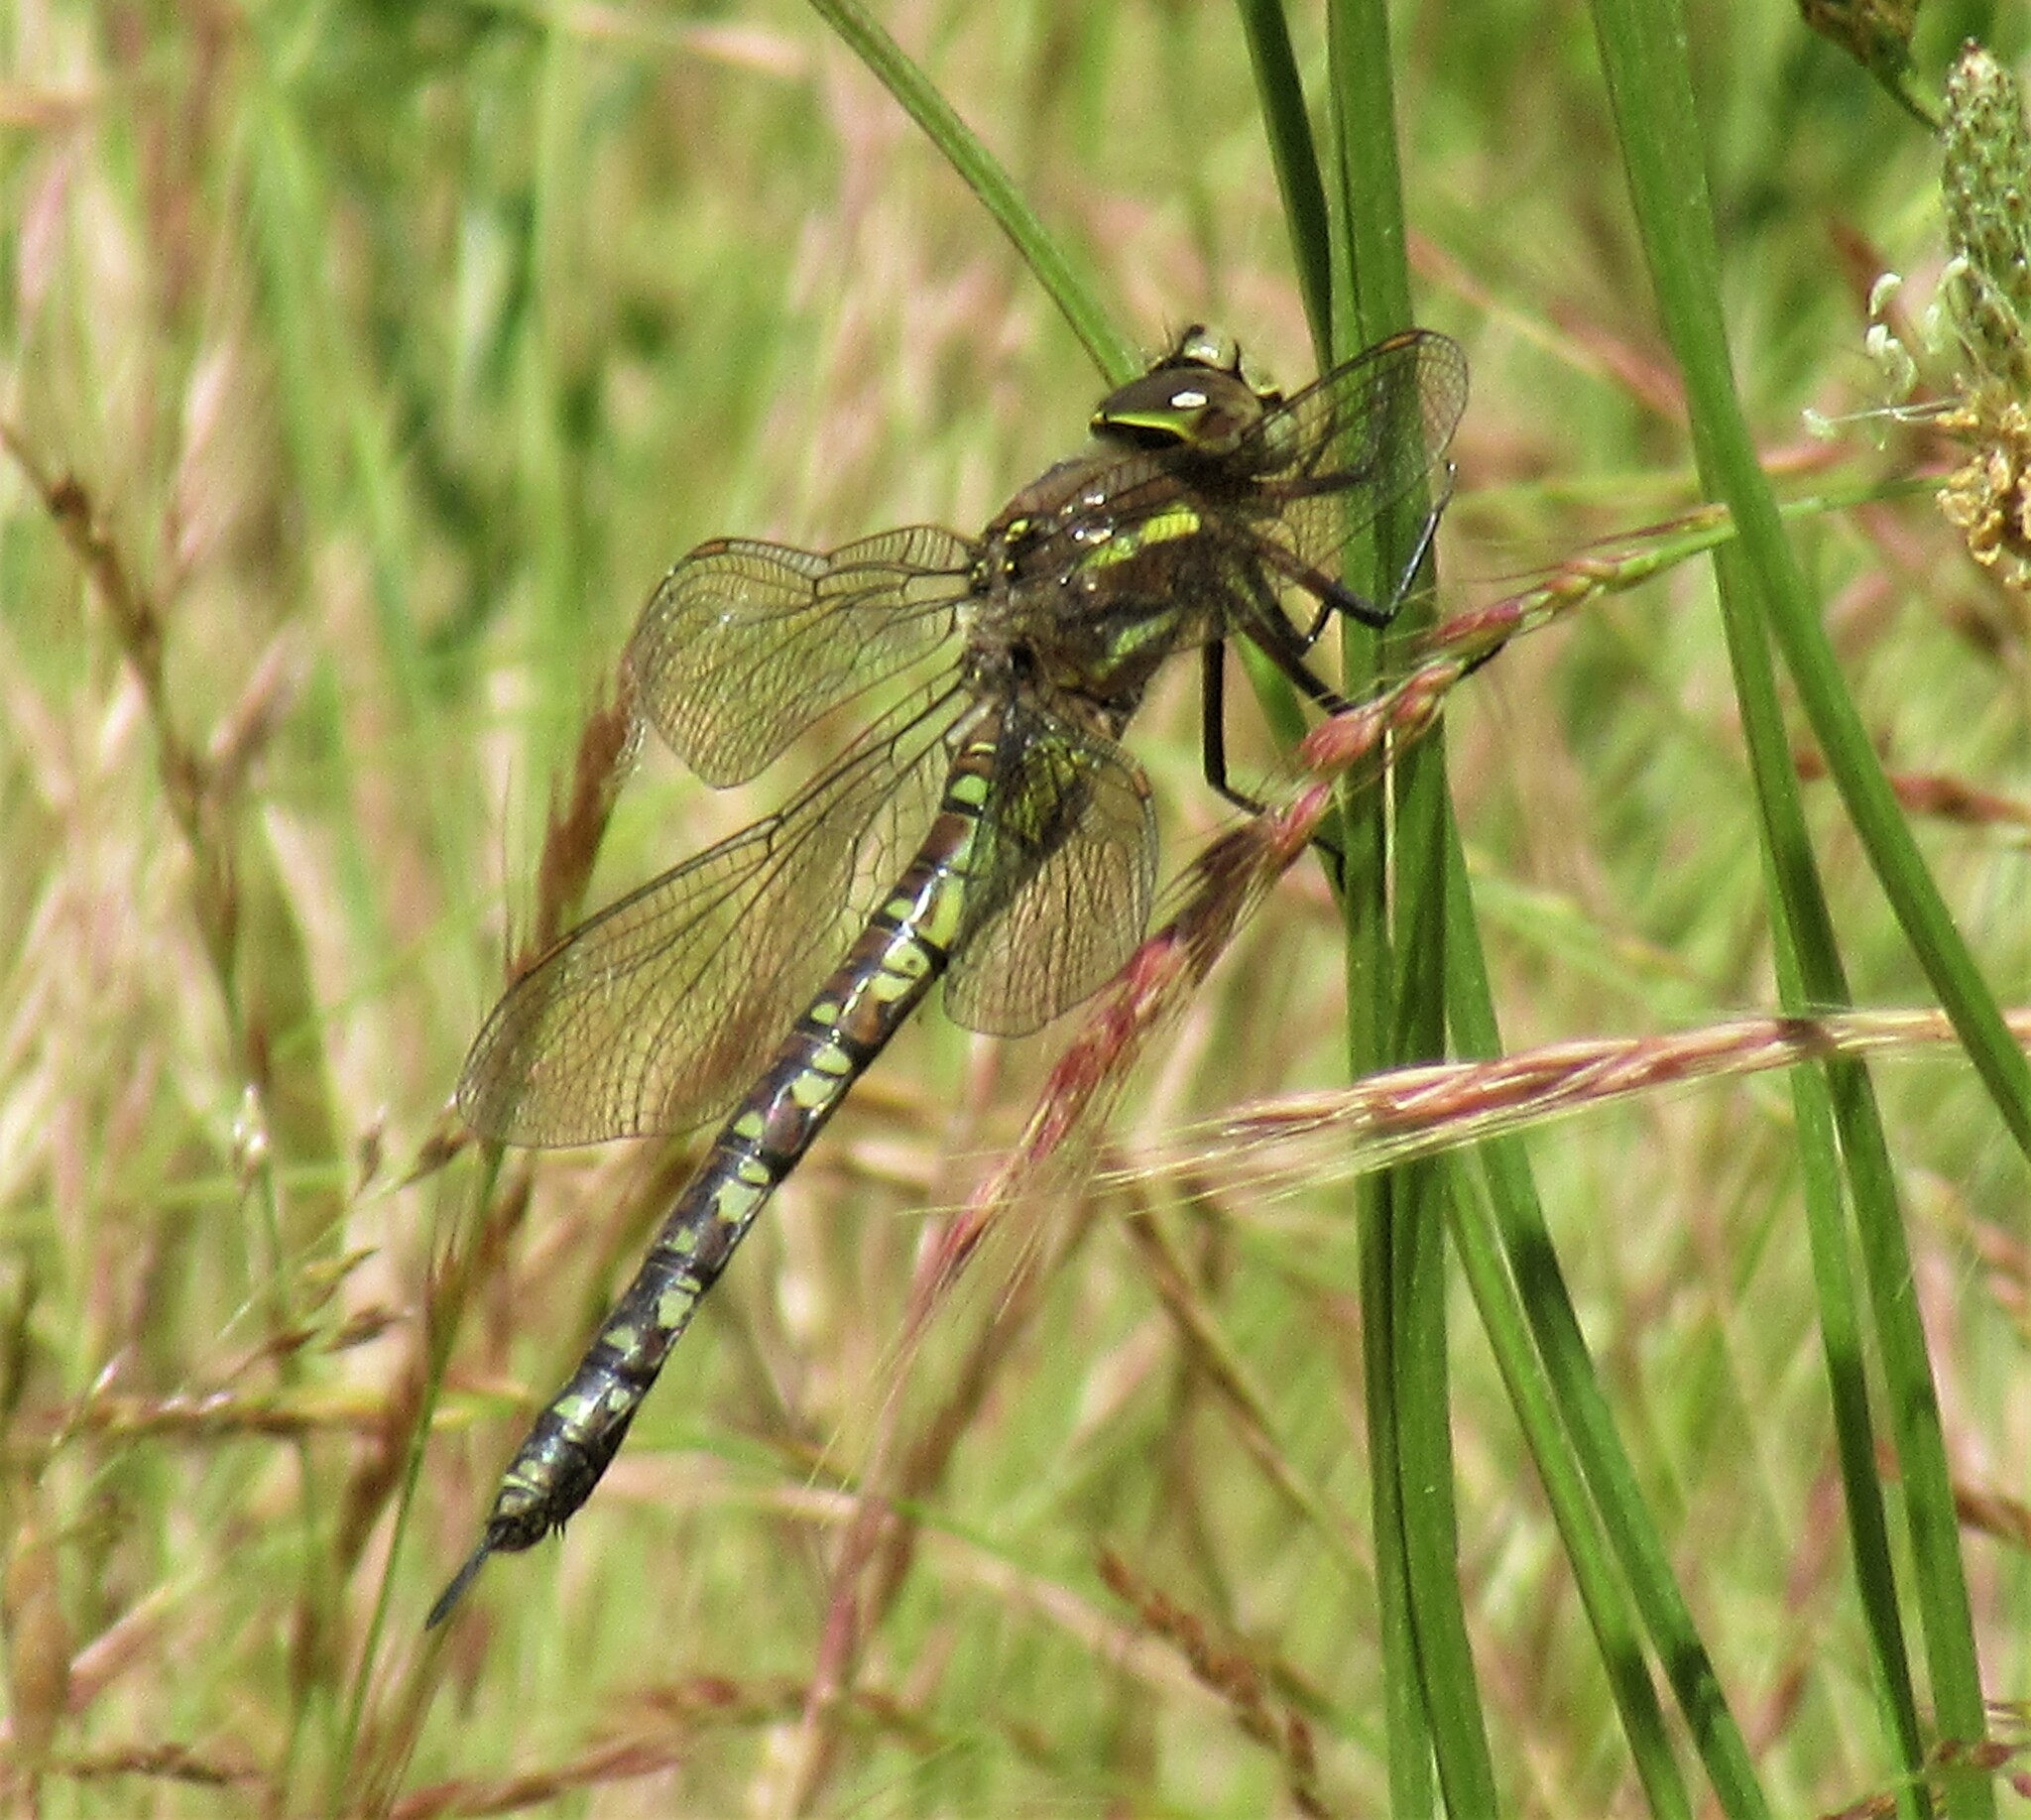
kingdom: Animalia
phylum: Arthropoda
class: Insecta
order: Odonata
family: Aeshnidae
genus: Rhionaeschna
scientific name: Rhionaeschna californica
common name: California darner
